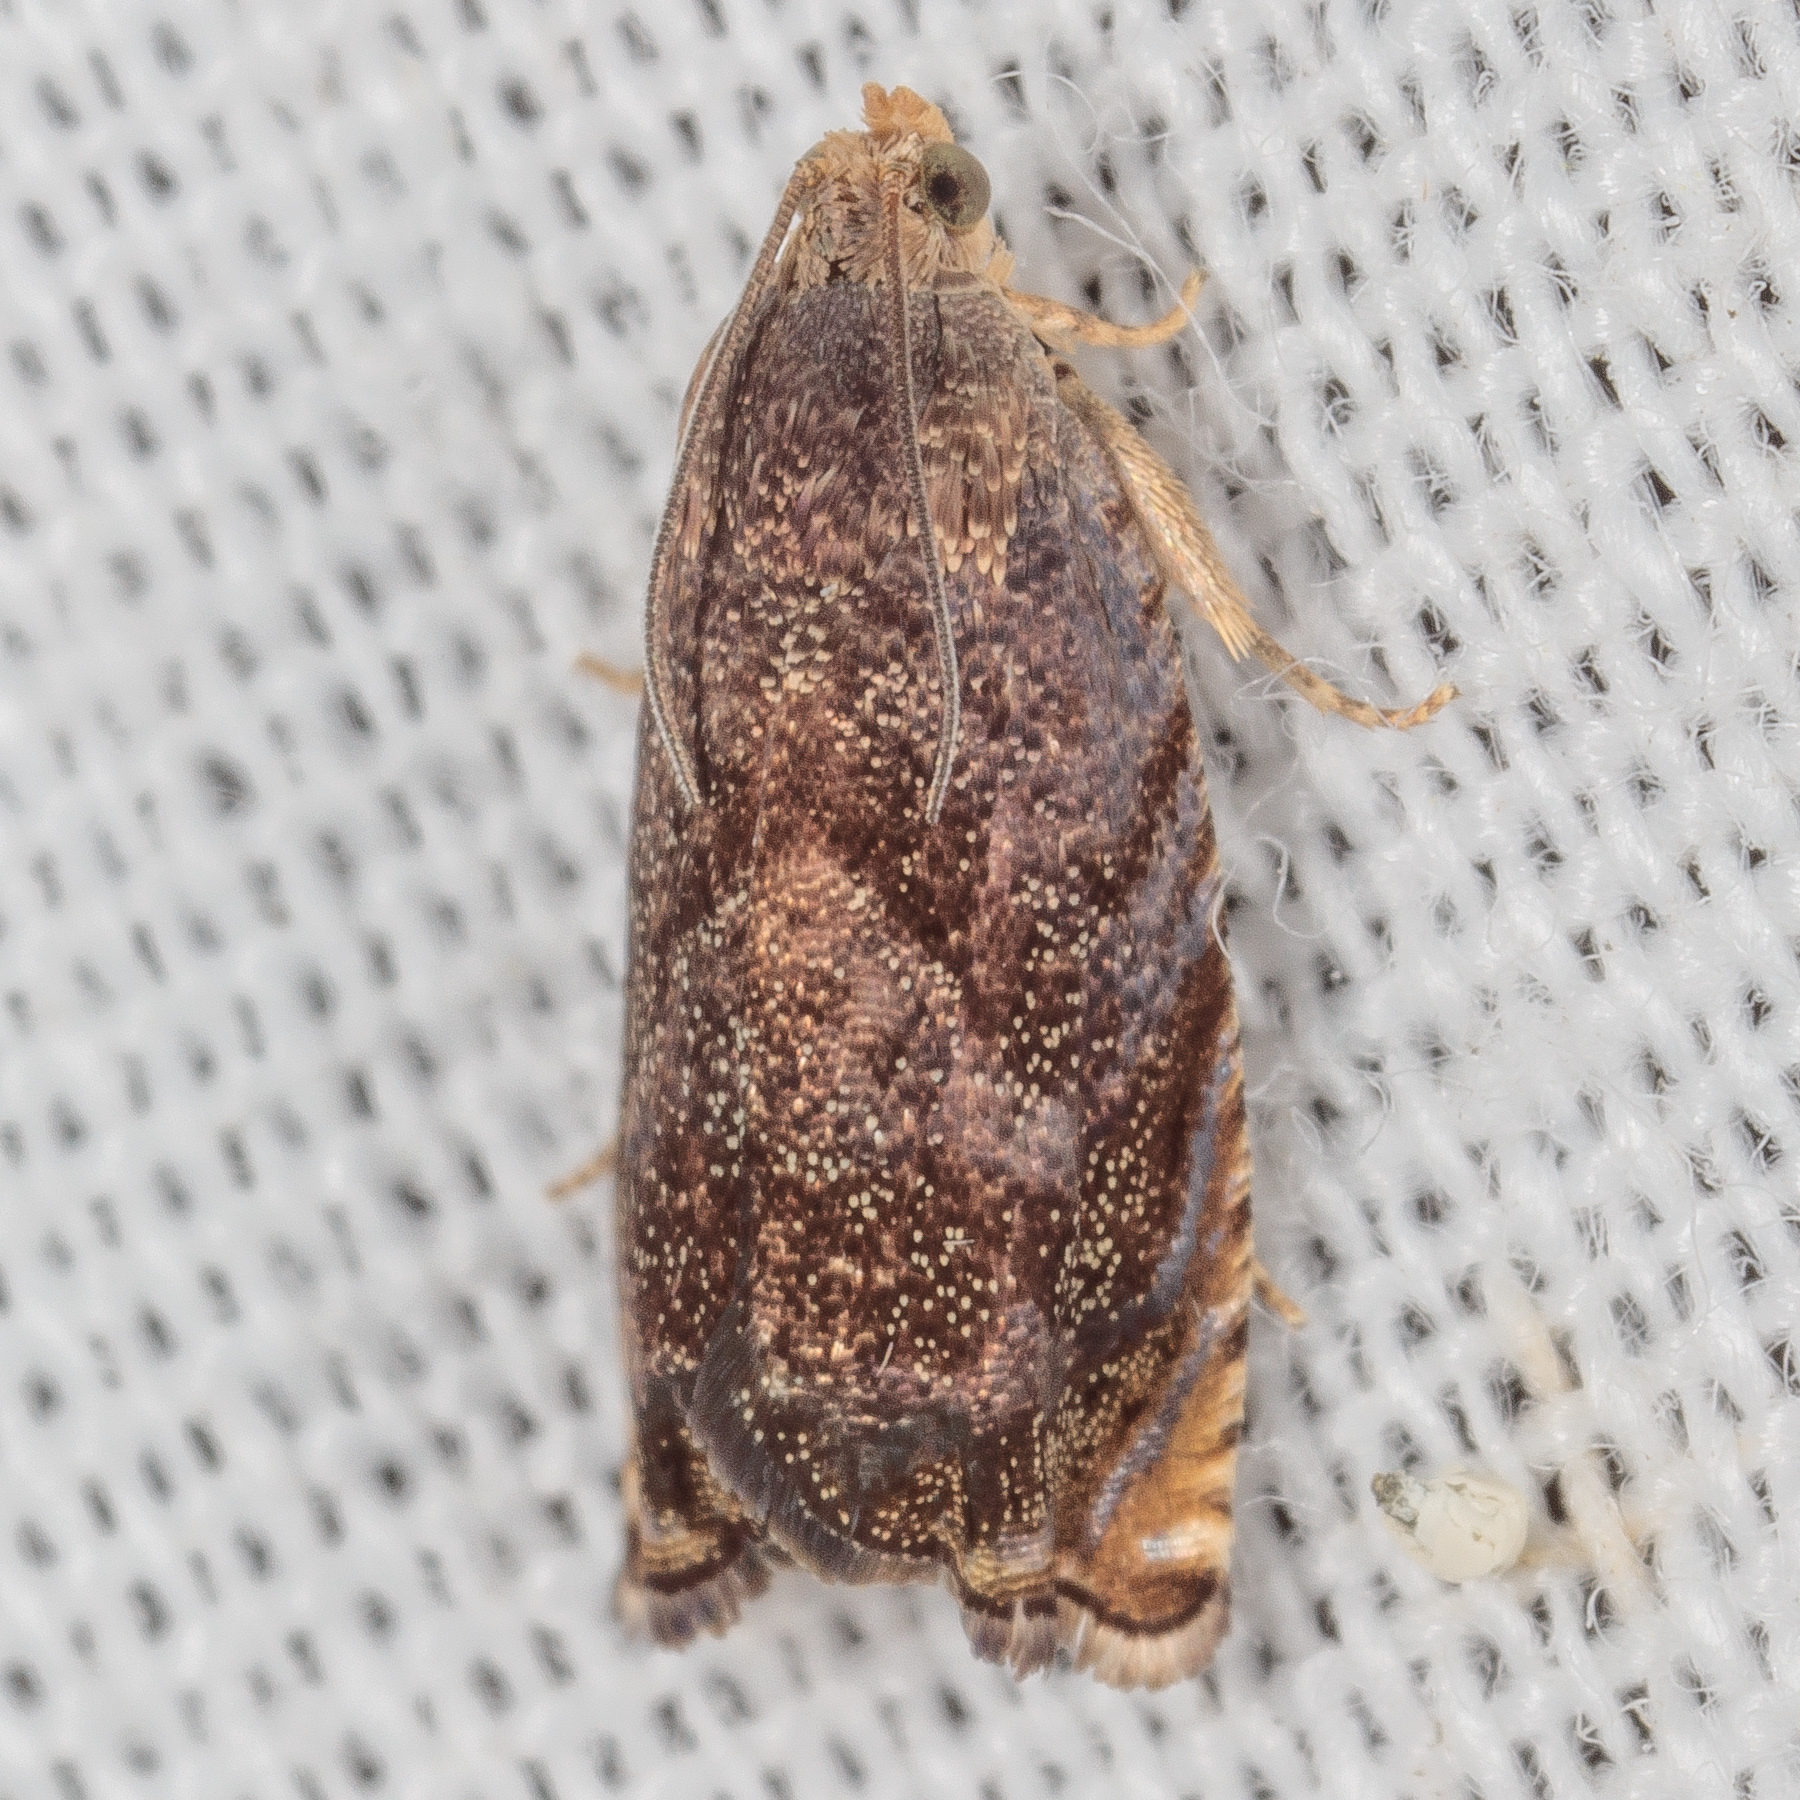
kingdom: Animalia
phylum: Arthropoda
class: Insecta
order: Lepidoptera
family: Tortricidae
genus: Cydia
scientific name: Cydia caryana
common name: Hickory shuckworm moth
